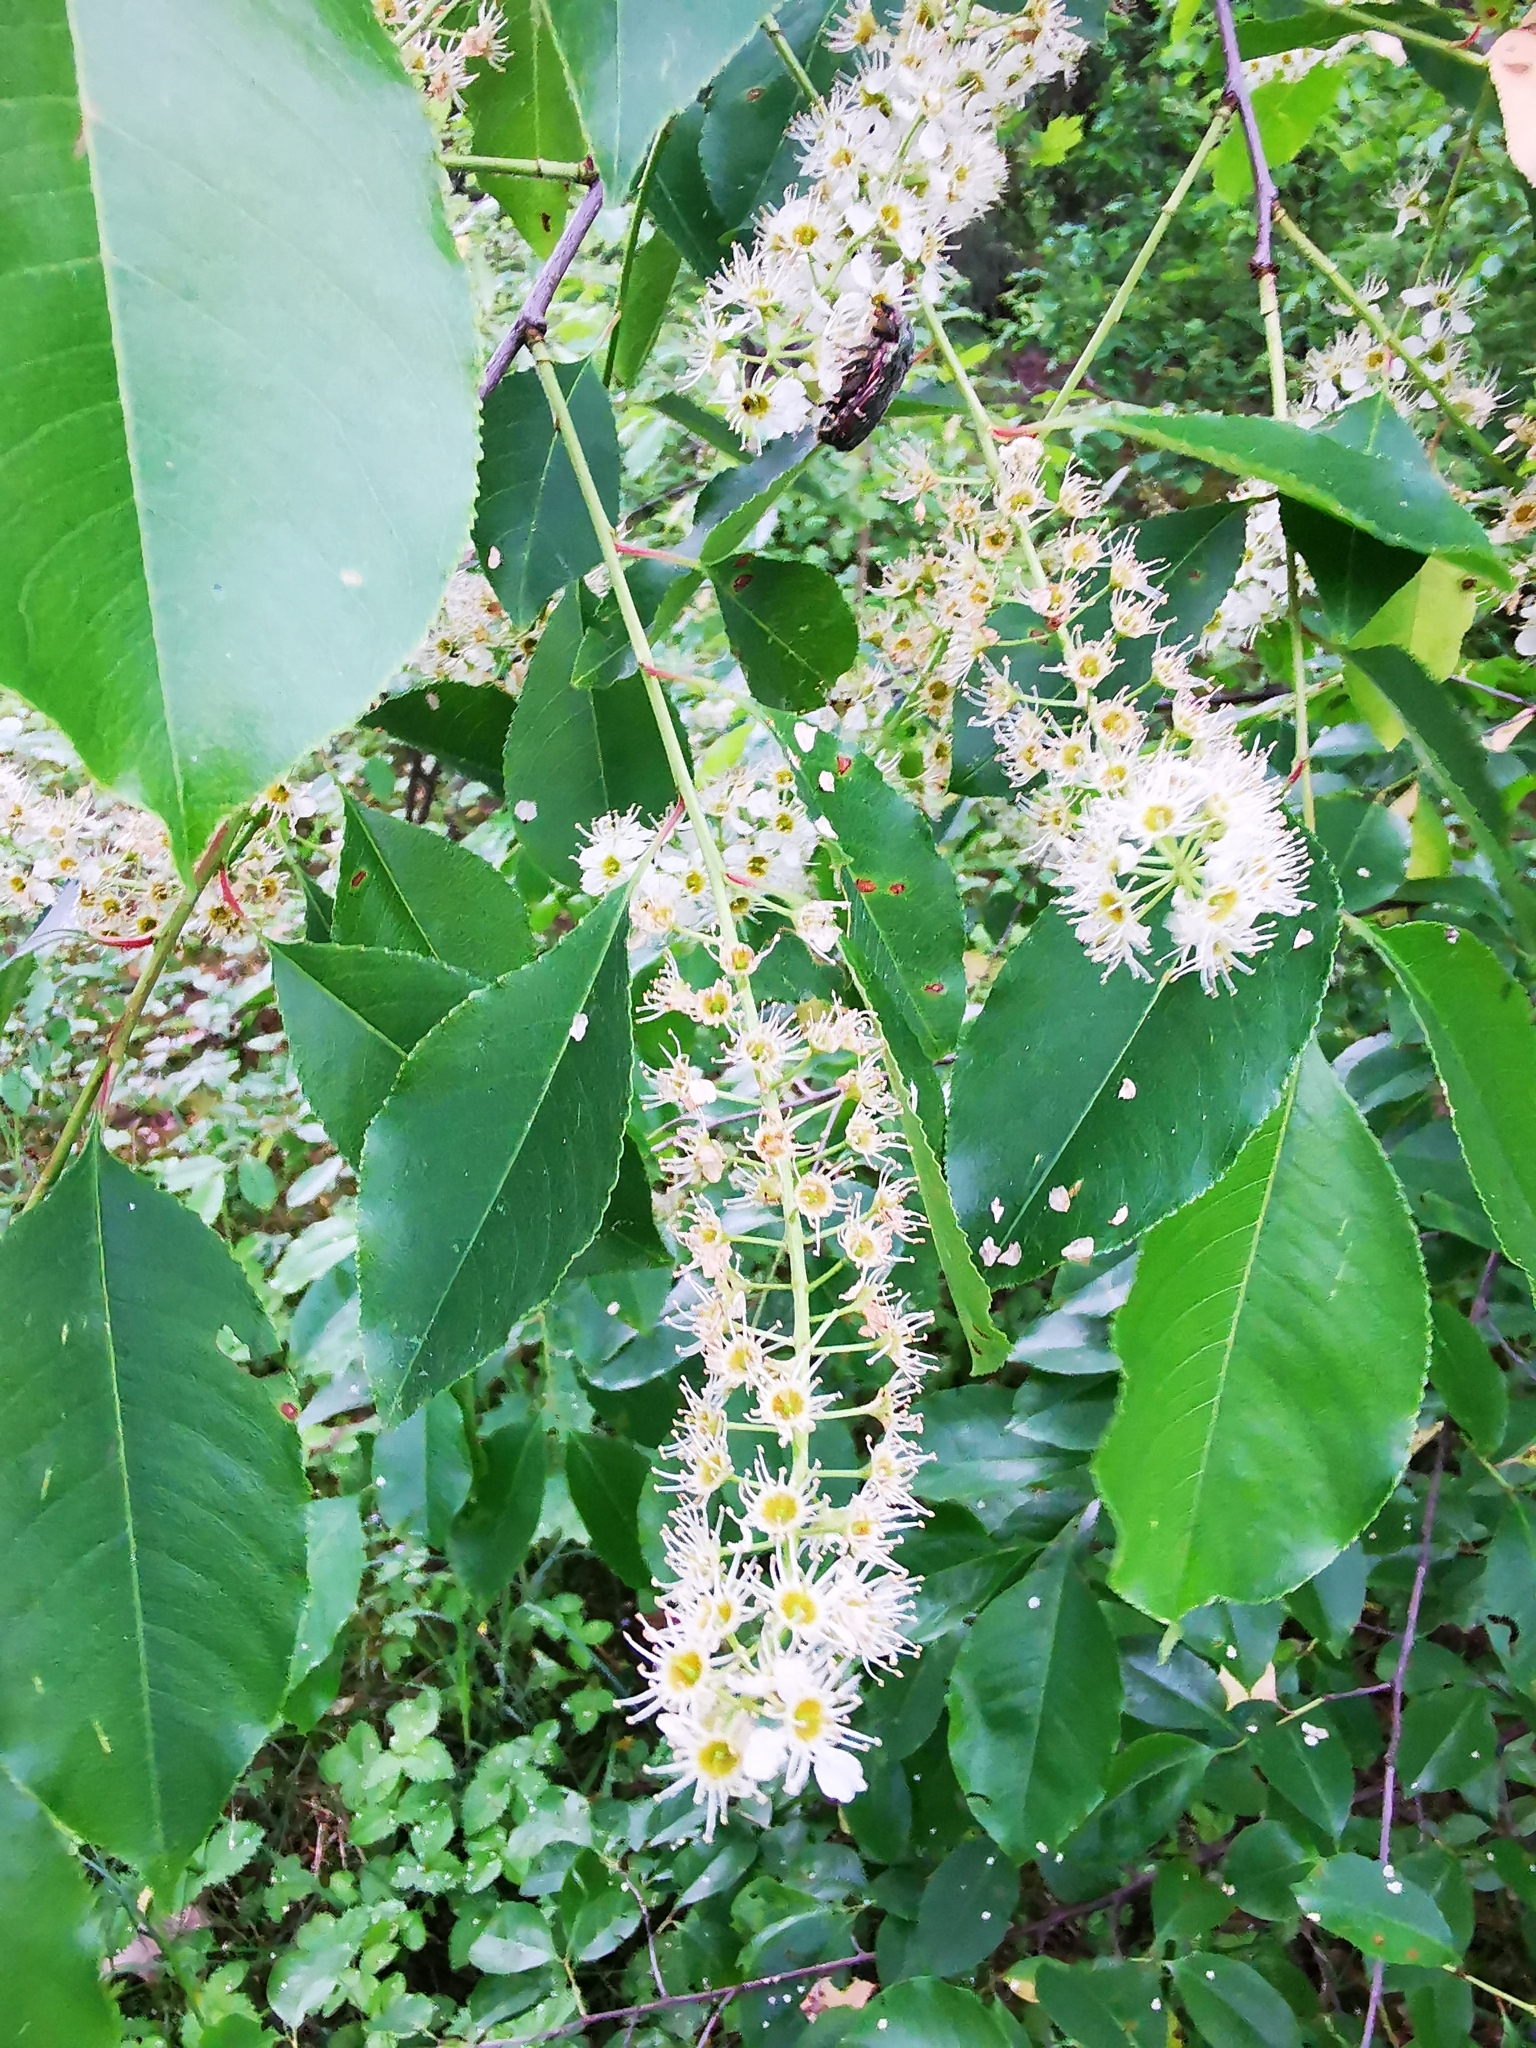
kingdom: Plantae
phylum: Tracheophyta
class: Magnoliopsida
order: Rosales
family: Rosaceae
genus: Prunus
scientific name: Prunus serotina
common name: Black cherry
